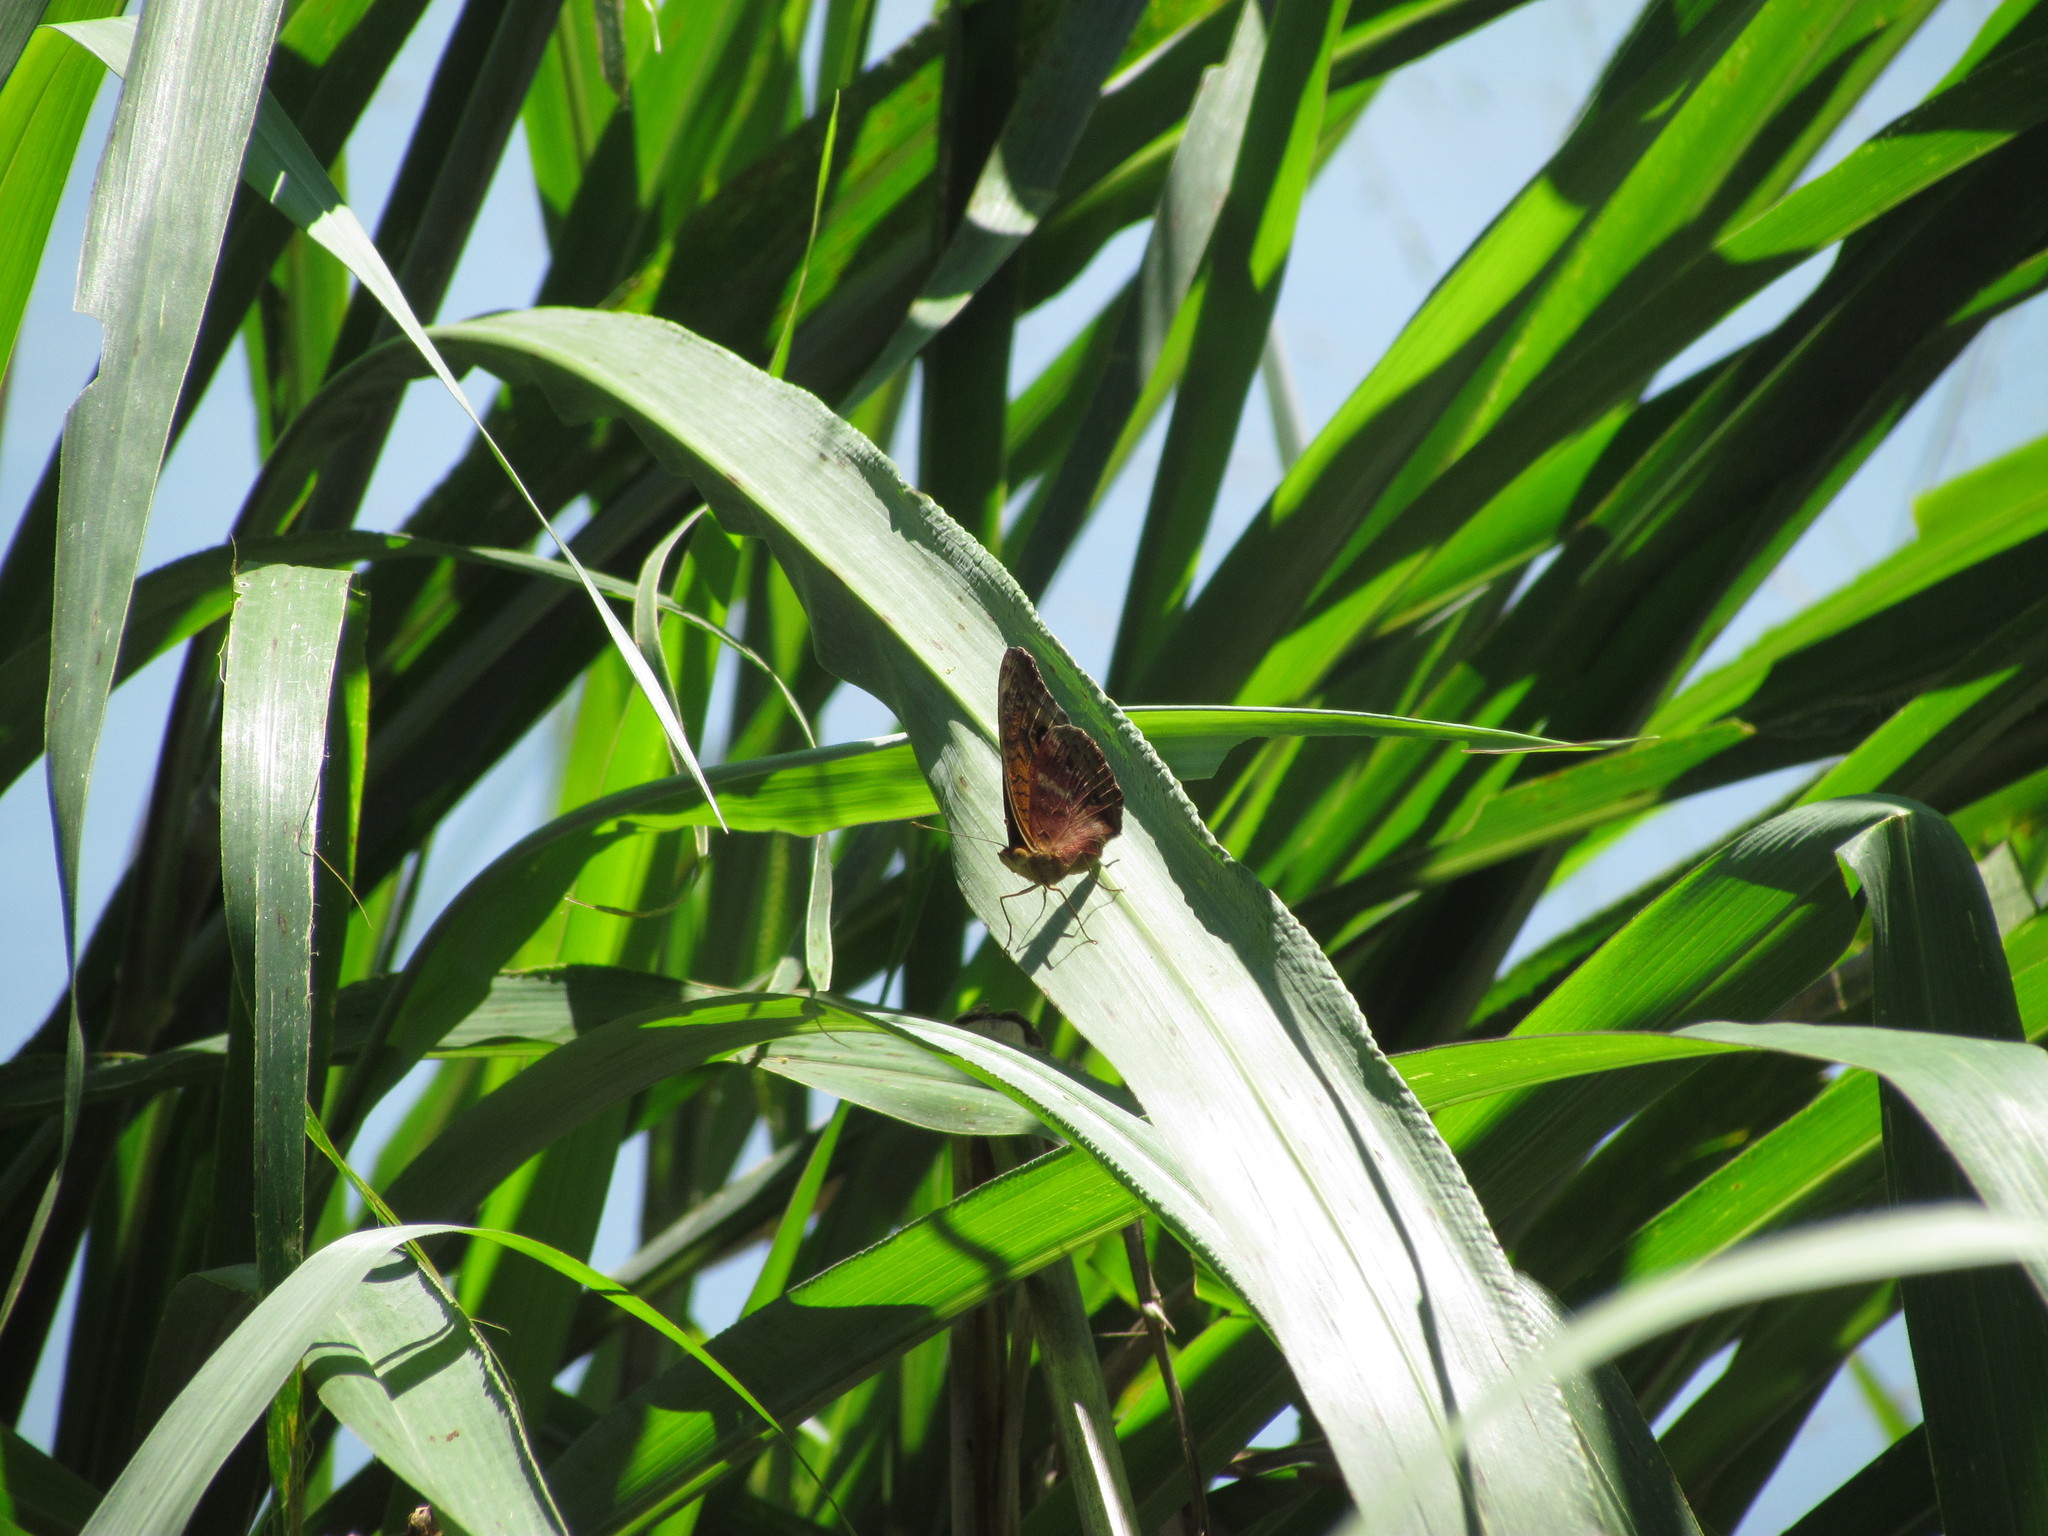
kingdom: Animalia
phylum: Arthropoda
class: Insecta
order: Lepidoptera
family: Nymphalidae
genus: Junonia
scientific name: Junonia lavinia
